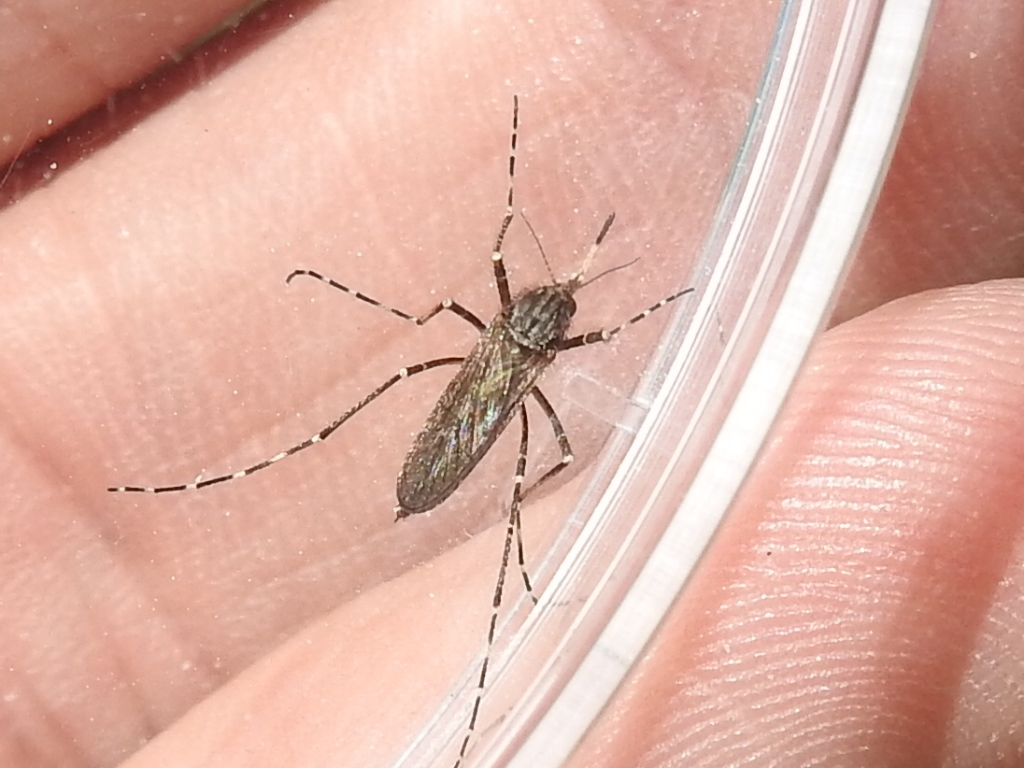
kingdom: Animalia
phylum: Arthropoda
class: Insecta
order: Diptera
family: Culicidae
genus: Psorophora
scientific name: Psorophora columbiae
